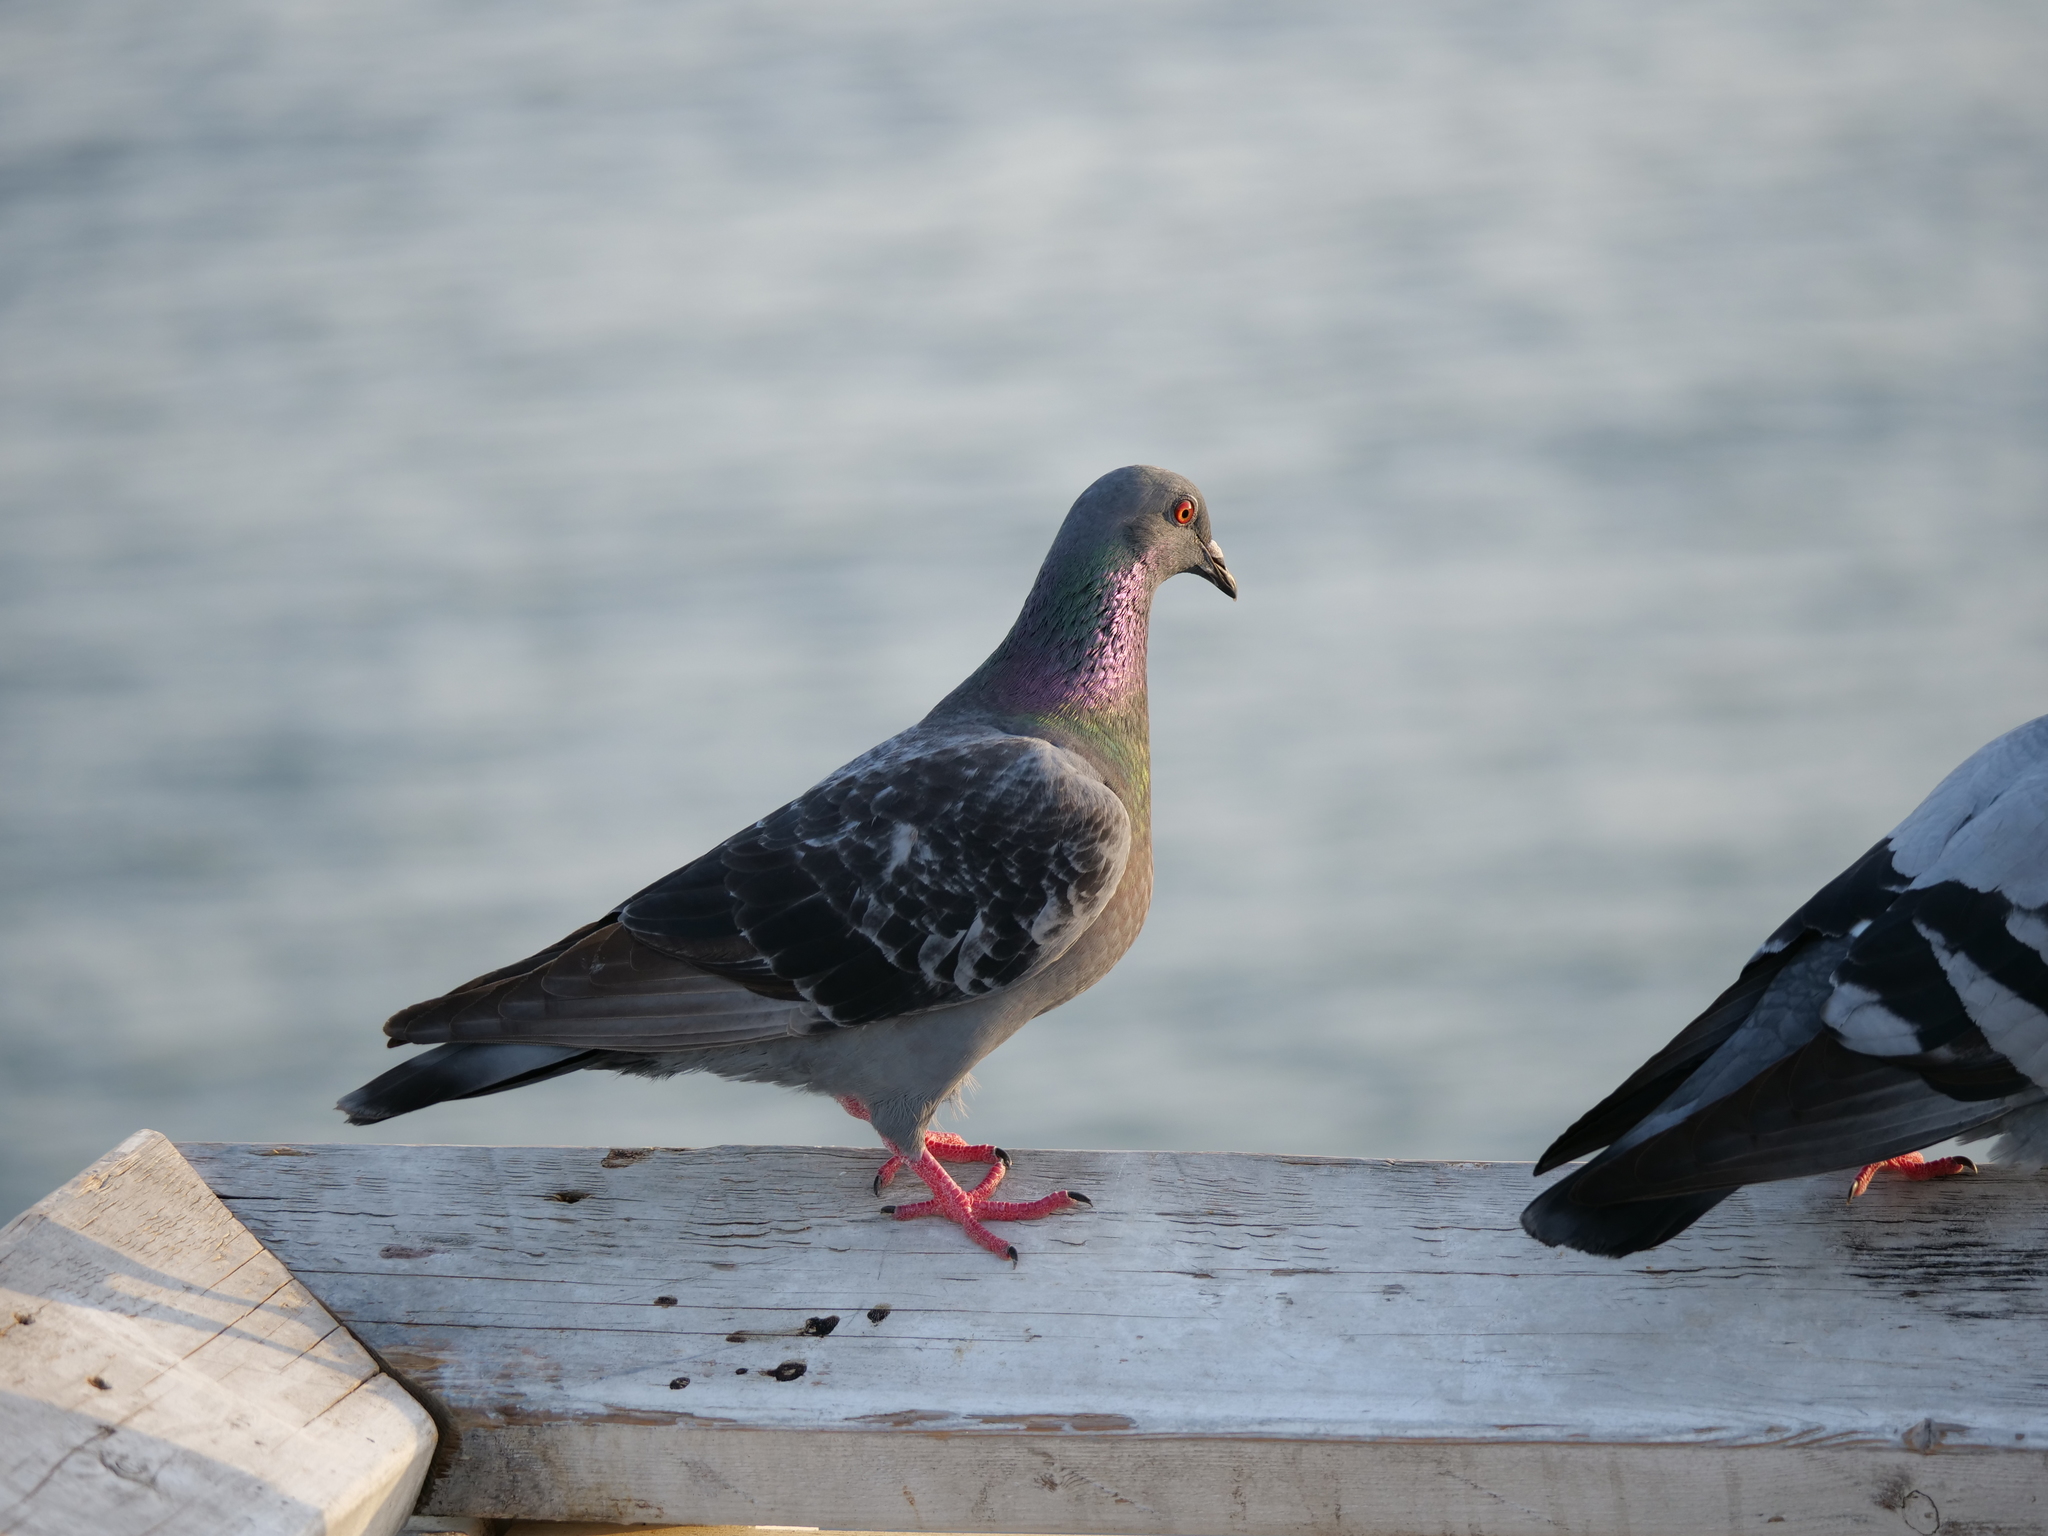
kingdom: Animalia
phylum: Chordata
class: Aves
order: Columbiformes
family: Columbidae
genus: Columba
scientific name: Columba livia
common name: Rock pigeon
